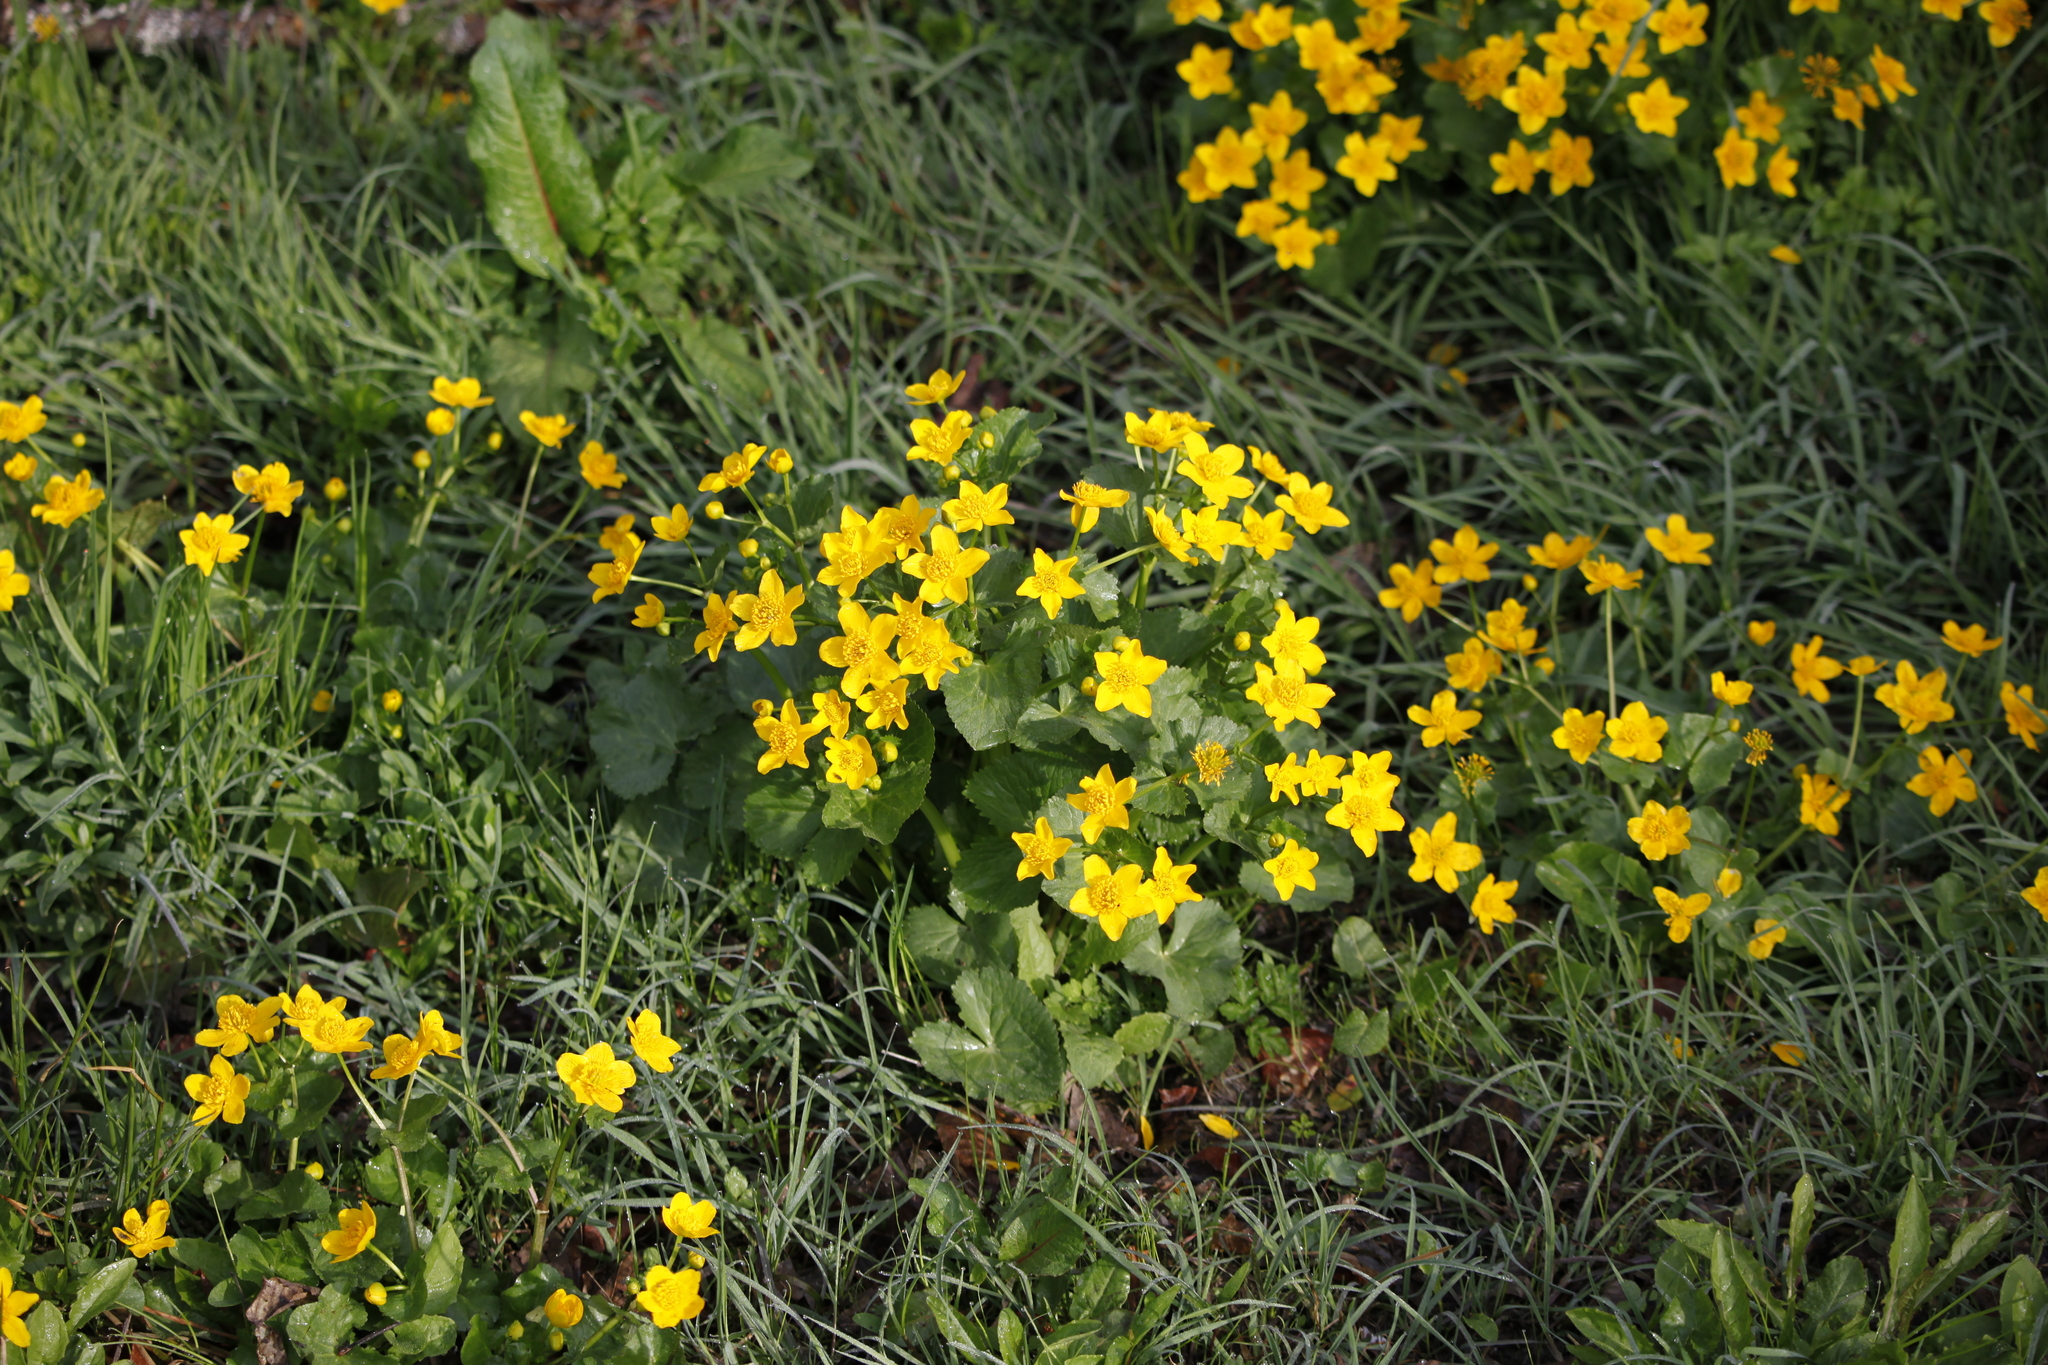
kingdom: Plantae
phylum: Tracheophyta
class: Magnoliopsida
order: Ranunculales
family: Ranunculaceae
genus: Caltha
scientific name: Caltha palustris
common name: Marsh marigold
